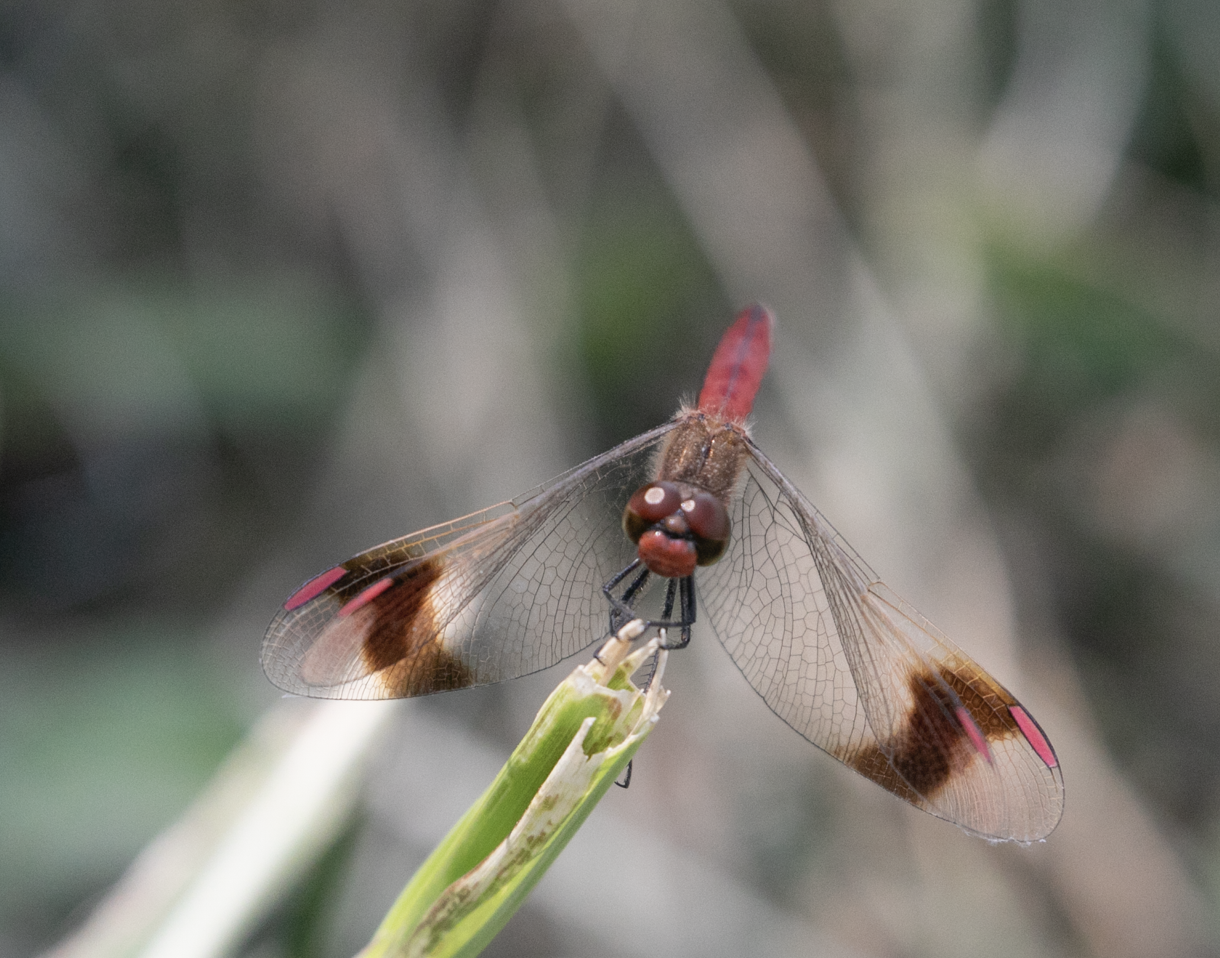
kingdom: Animalia
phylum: Arthropoda
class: Insecta
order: Odonata
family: Libellulidae
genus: Sympetrum
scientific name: Sympetrum pedemontanum
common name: Banded darter
